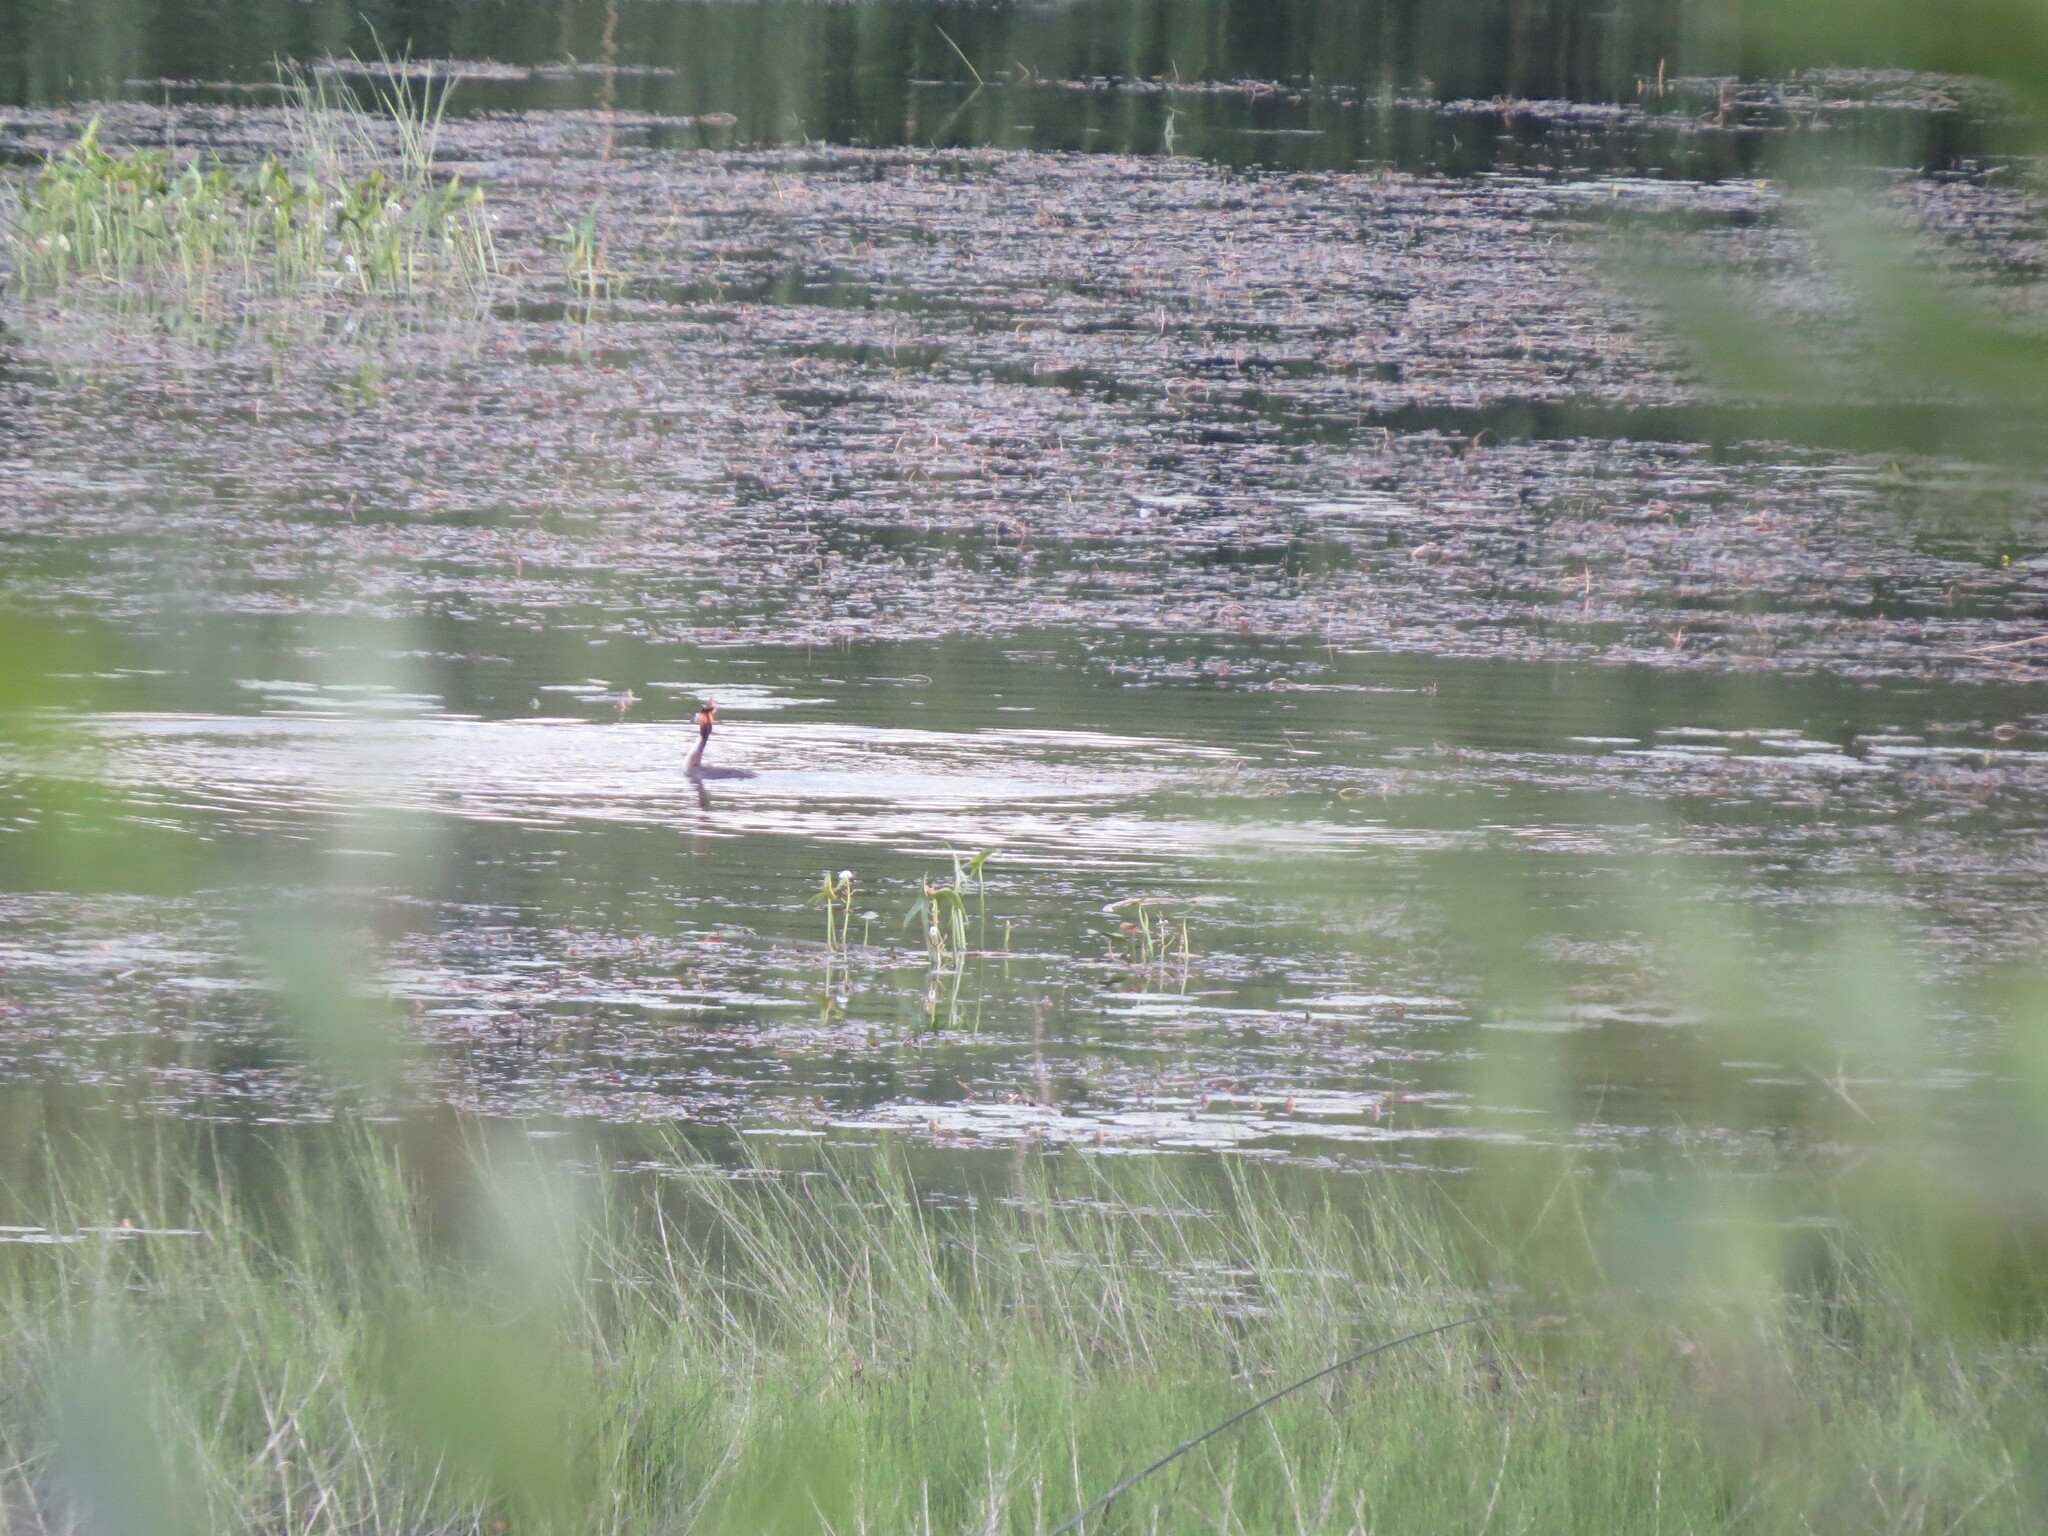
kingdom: Animalia
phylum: Chordata
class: Aves
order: Podicipediformes
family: Podicipedidae
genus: Podiceps
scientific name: Podiceps cristatus
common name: Great crested grebe
